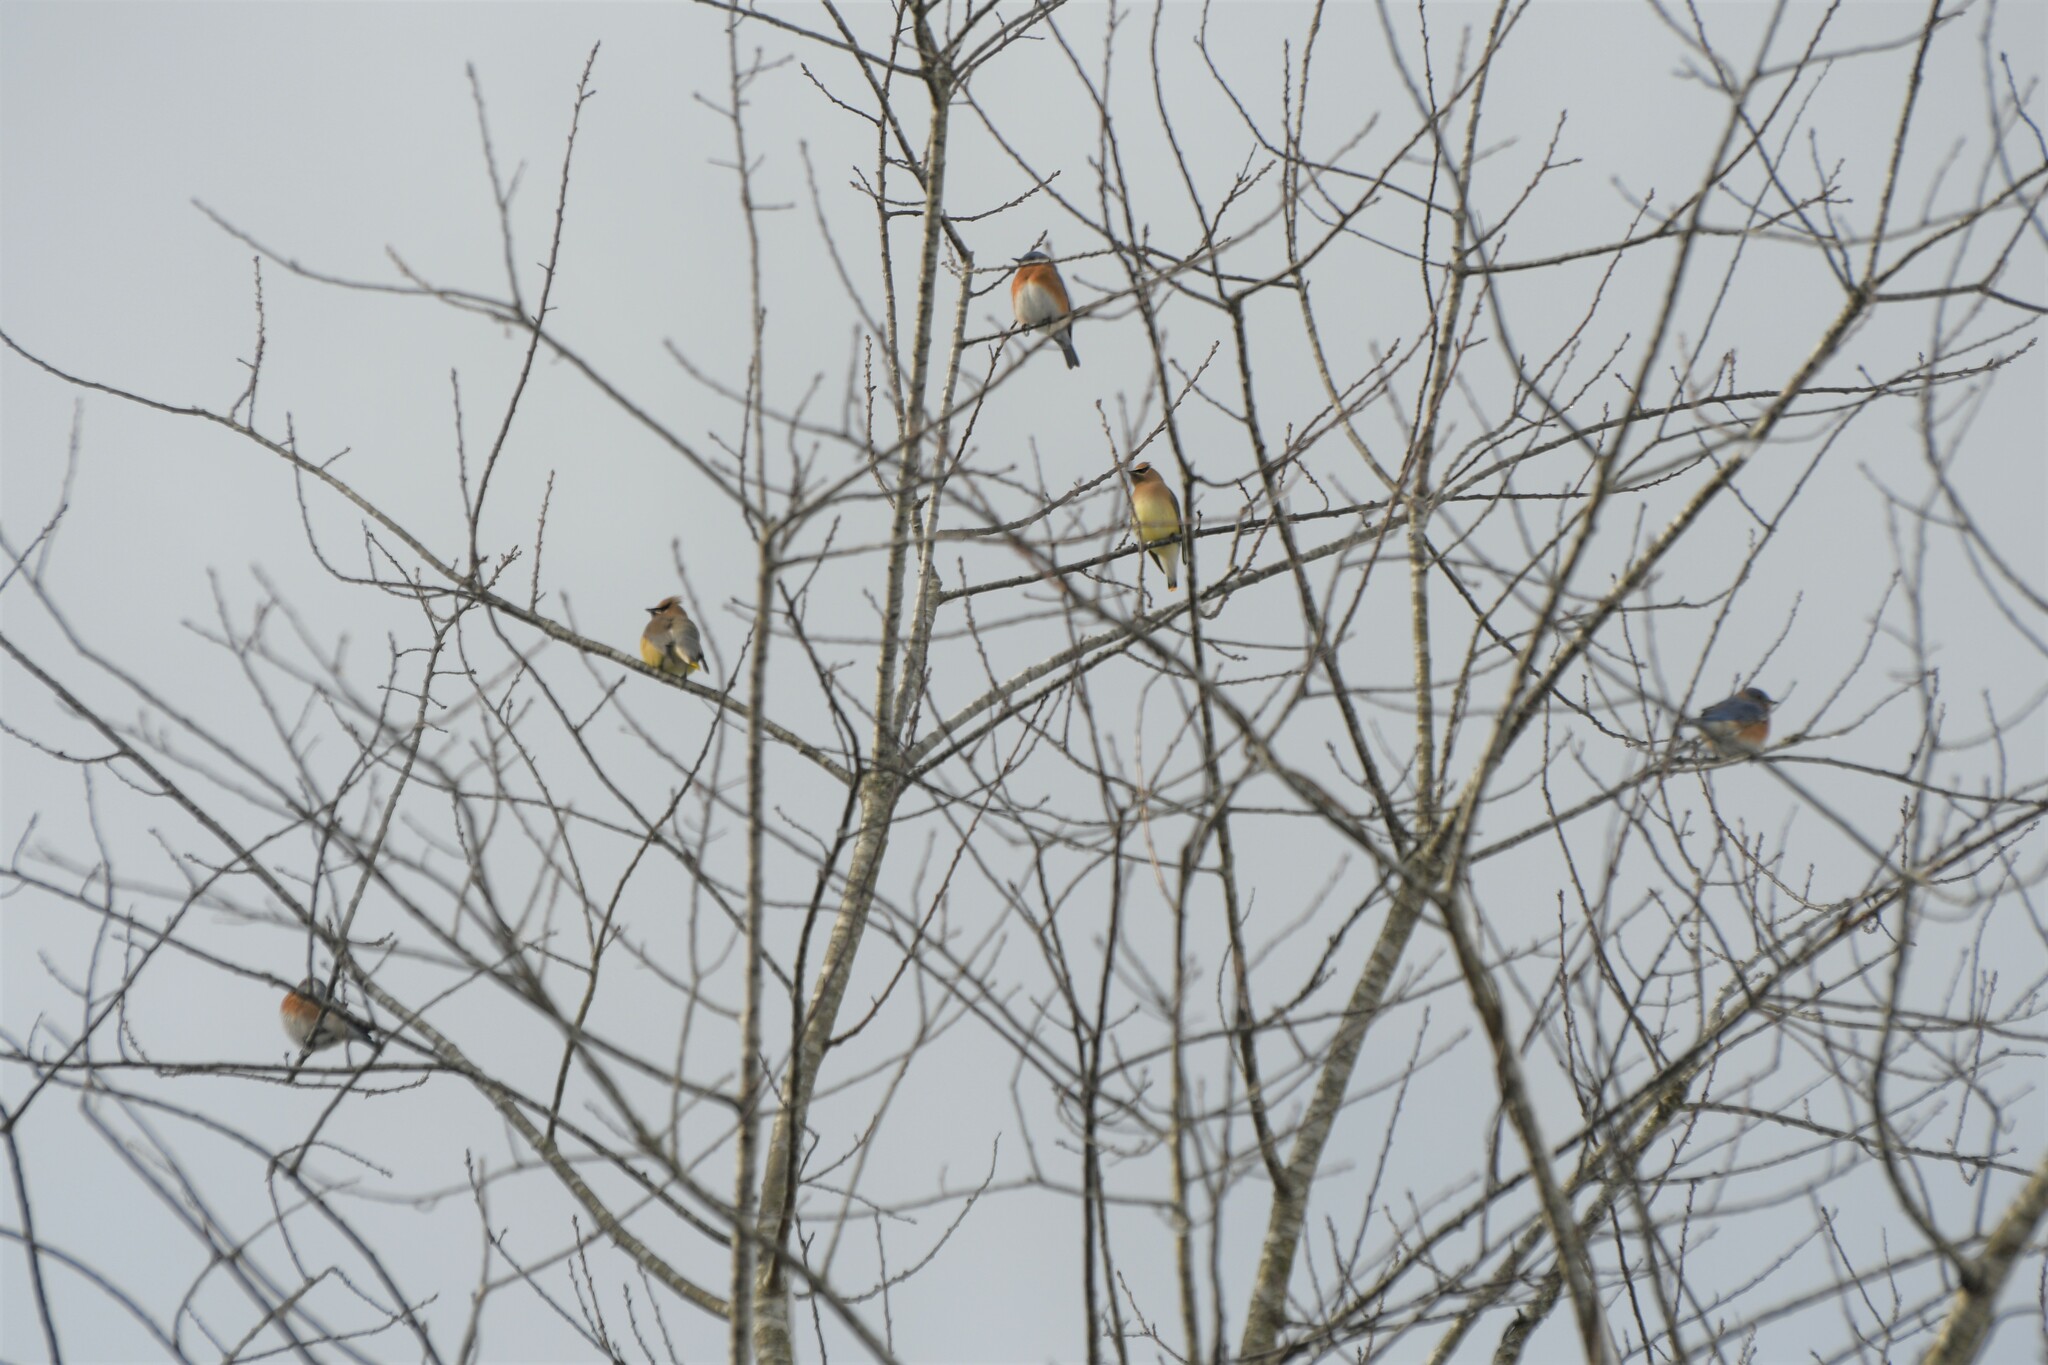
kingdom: Animalia
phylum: Chordata
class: Aves
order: Passeriformes
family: Turdidae
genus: Sialia
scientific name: Sialia sialis
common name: Eastern bluebird
